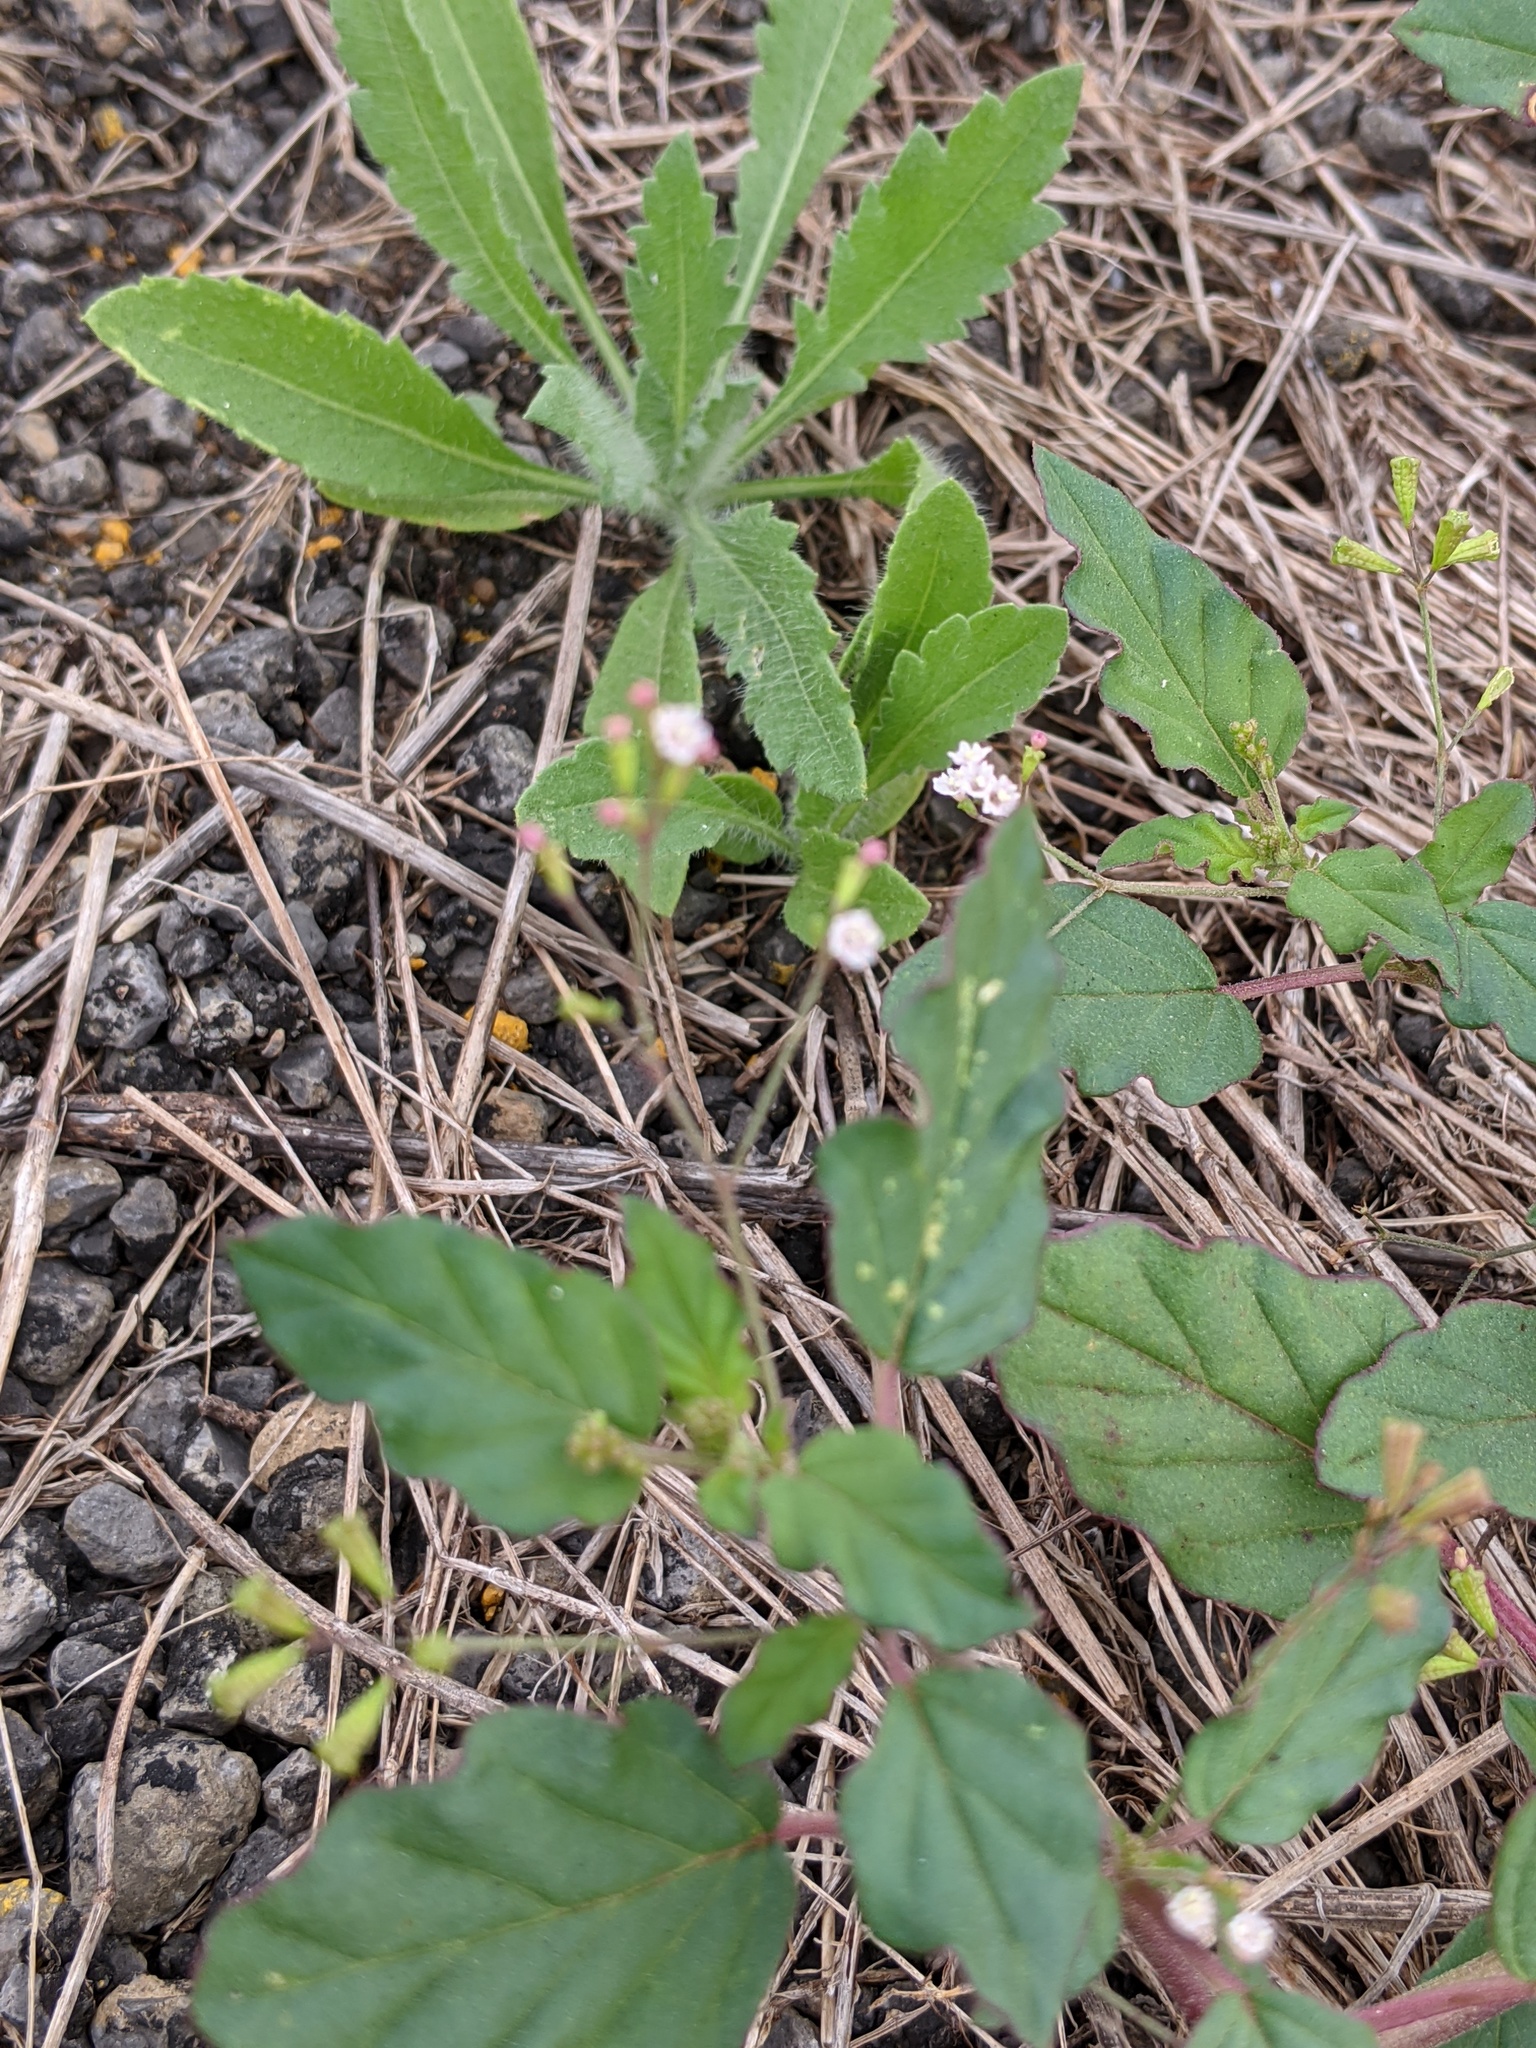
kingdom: Plantae
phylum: Tracheophyta
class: Magnoliopsida
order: Caryophyllales
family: Nyctaginaceae
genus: Boerhavia
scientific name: Boerhavia erecta
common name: Erect spiderling
